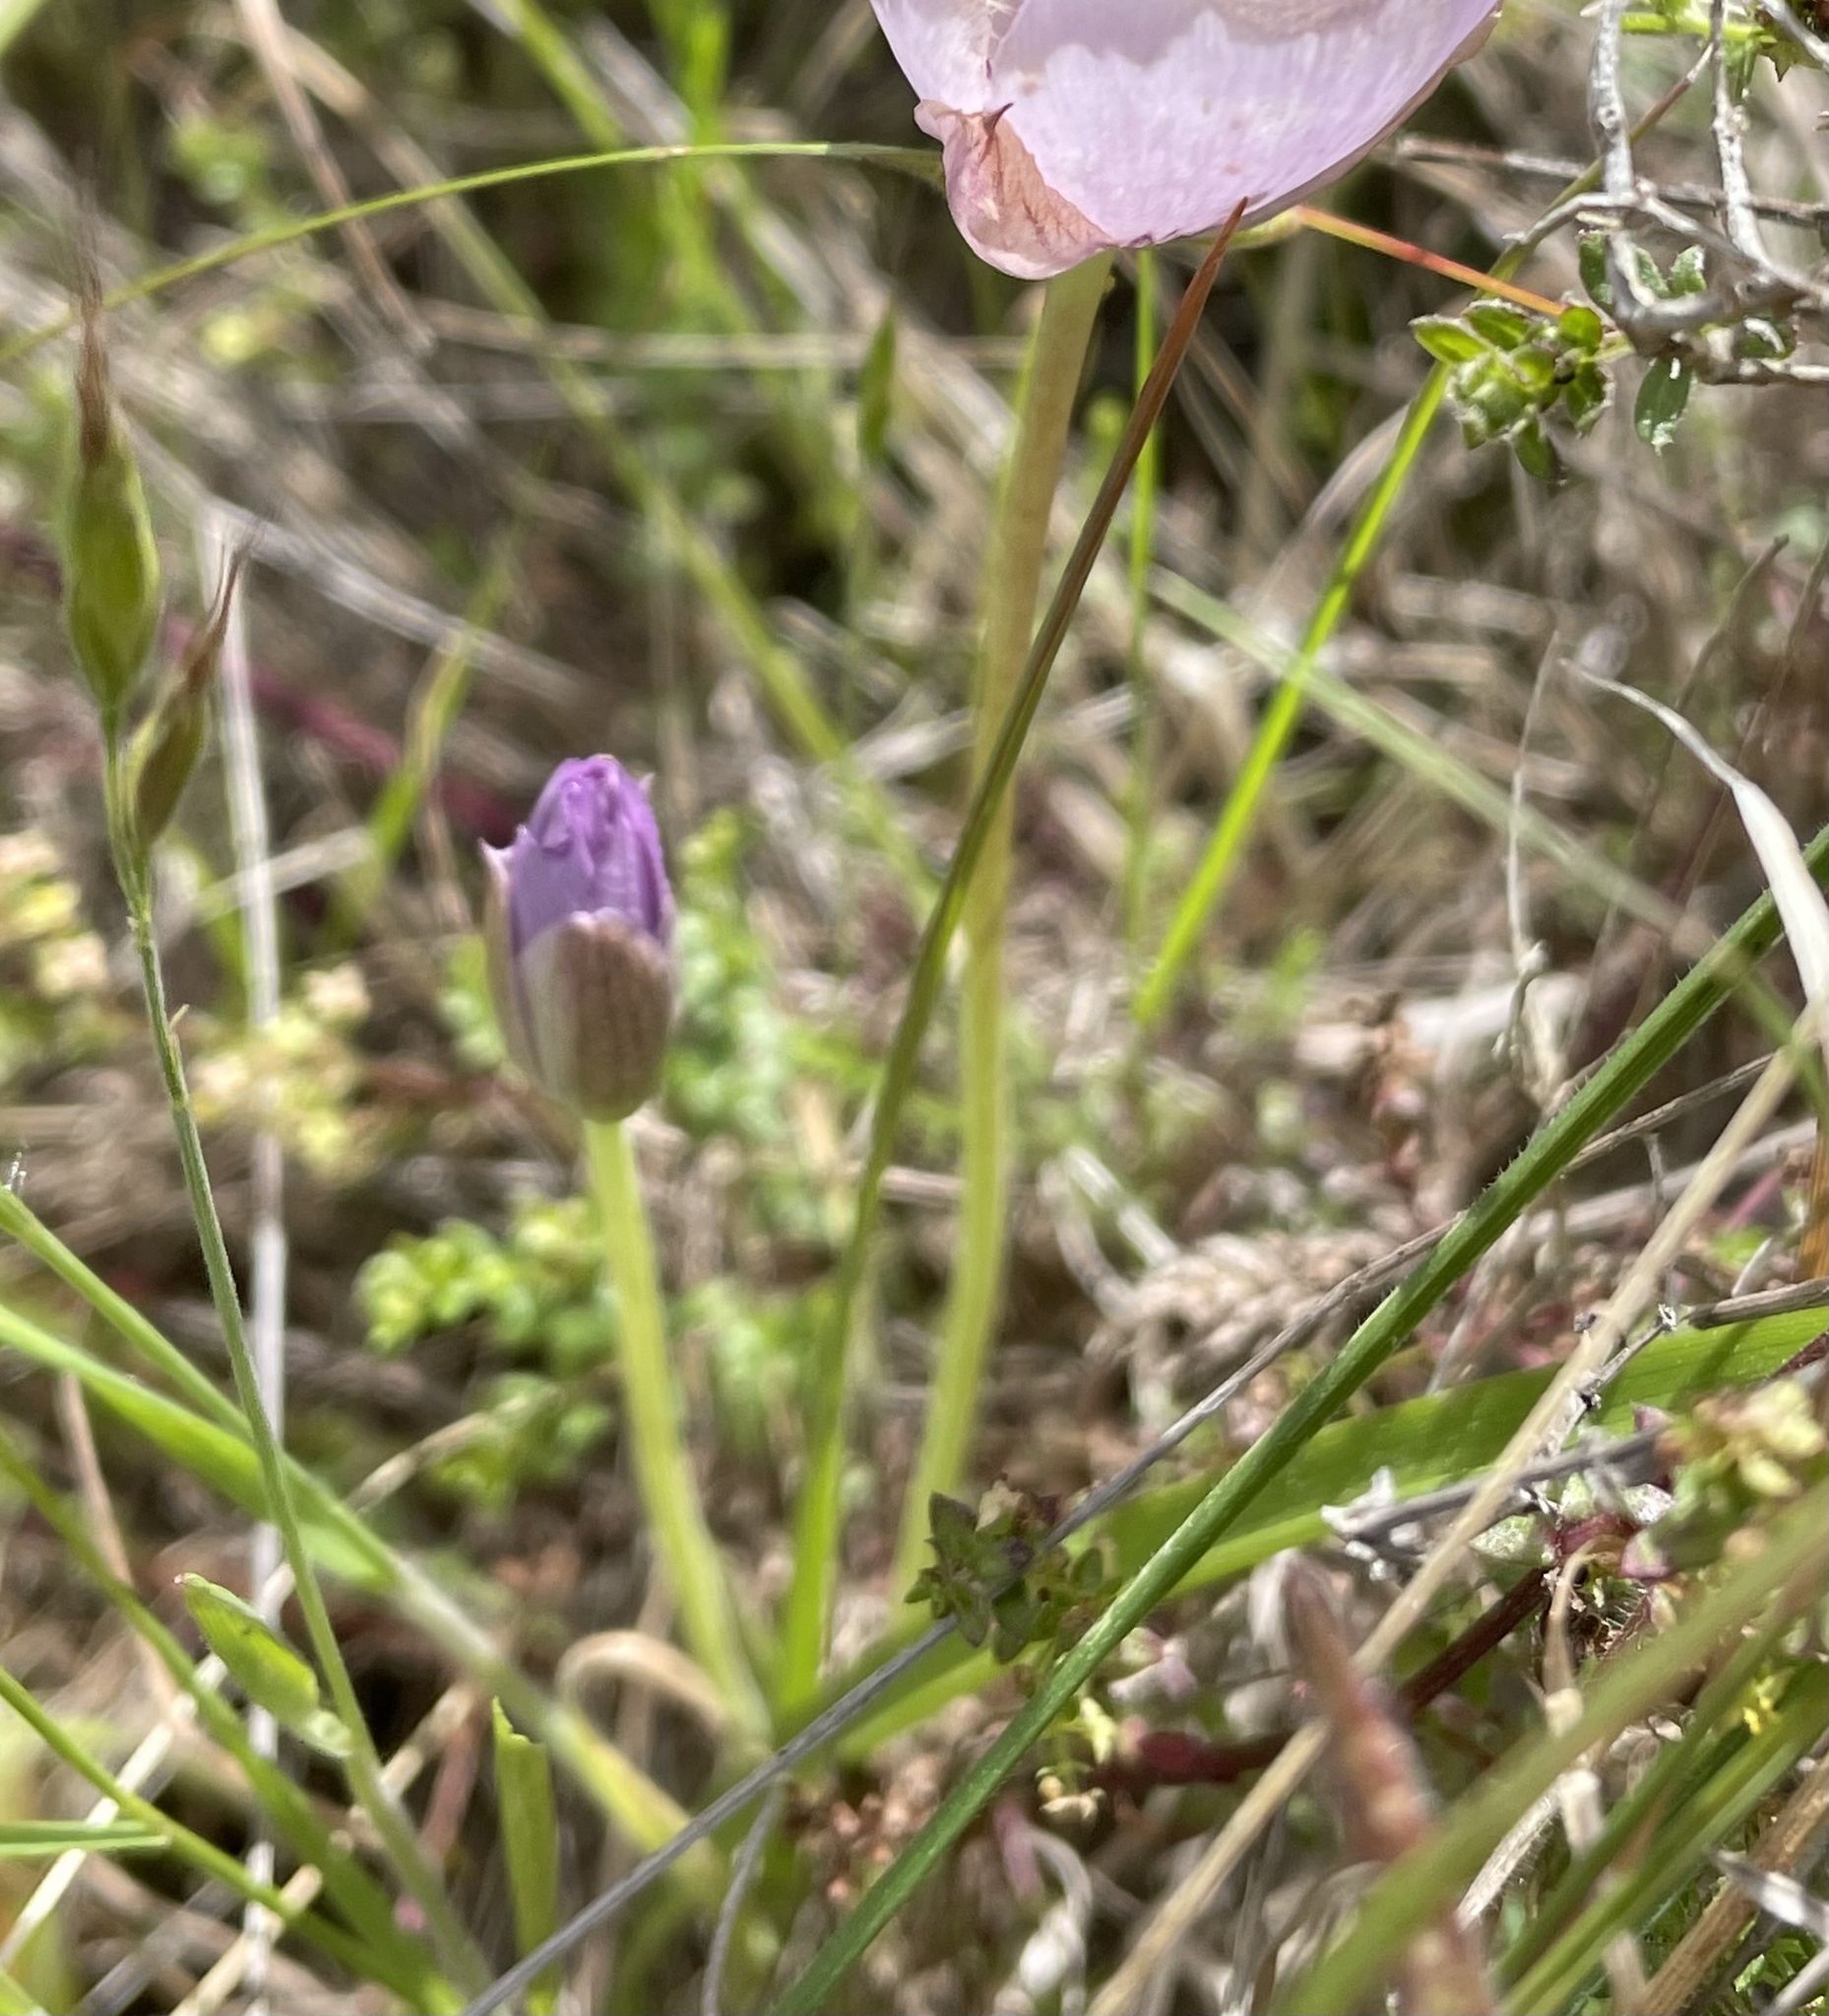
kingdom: Plantae
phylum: Tracheophyta
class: Liliopsida
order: Liliales
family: Liliaceae
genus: Calochortus
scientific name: Calochortus uniflorus
